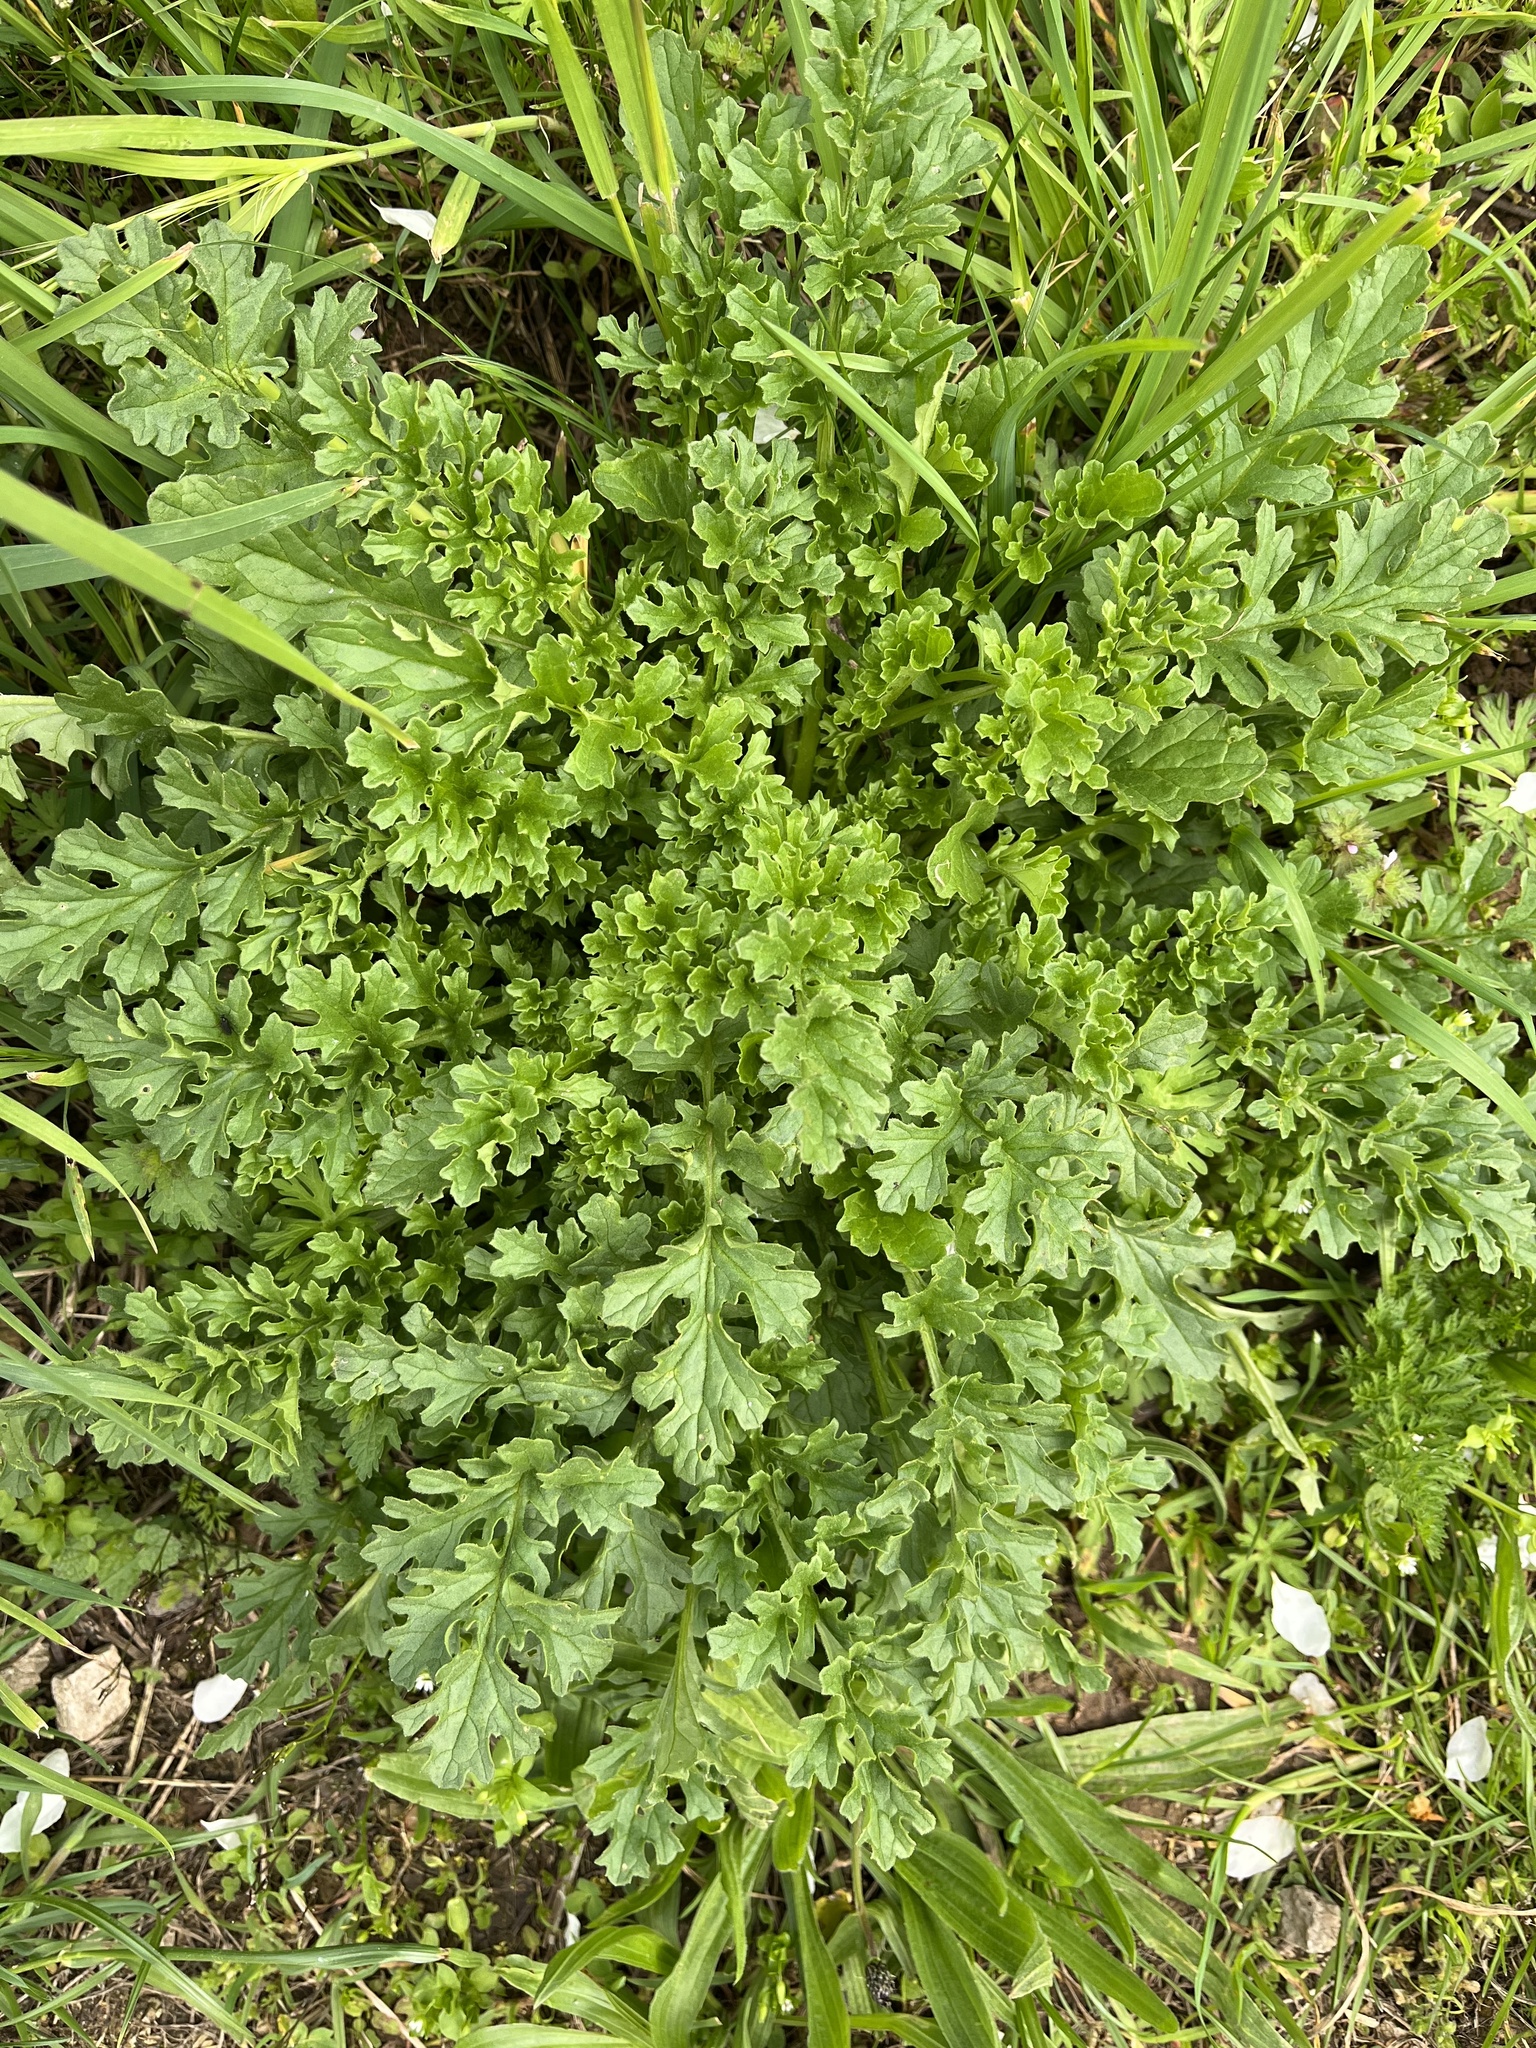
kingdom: Plantae
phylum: Tracheophyta
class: Magnoliopsida
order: Asterales
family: Asteraceae
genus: Jacobaea
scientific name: Jacobaea vulgaris
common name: Stinking willie
